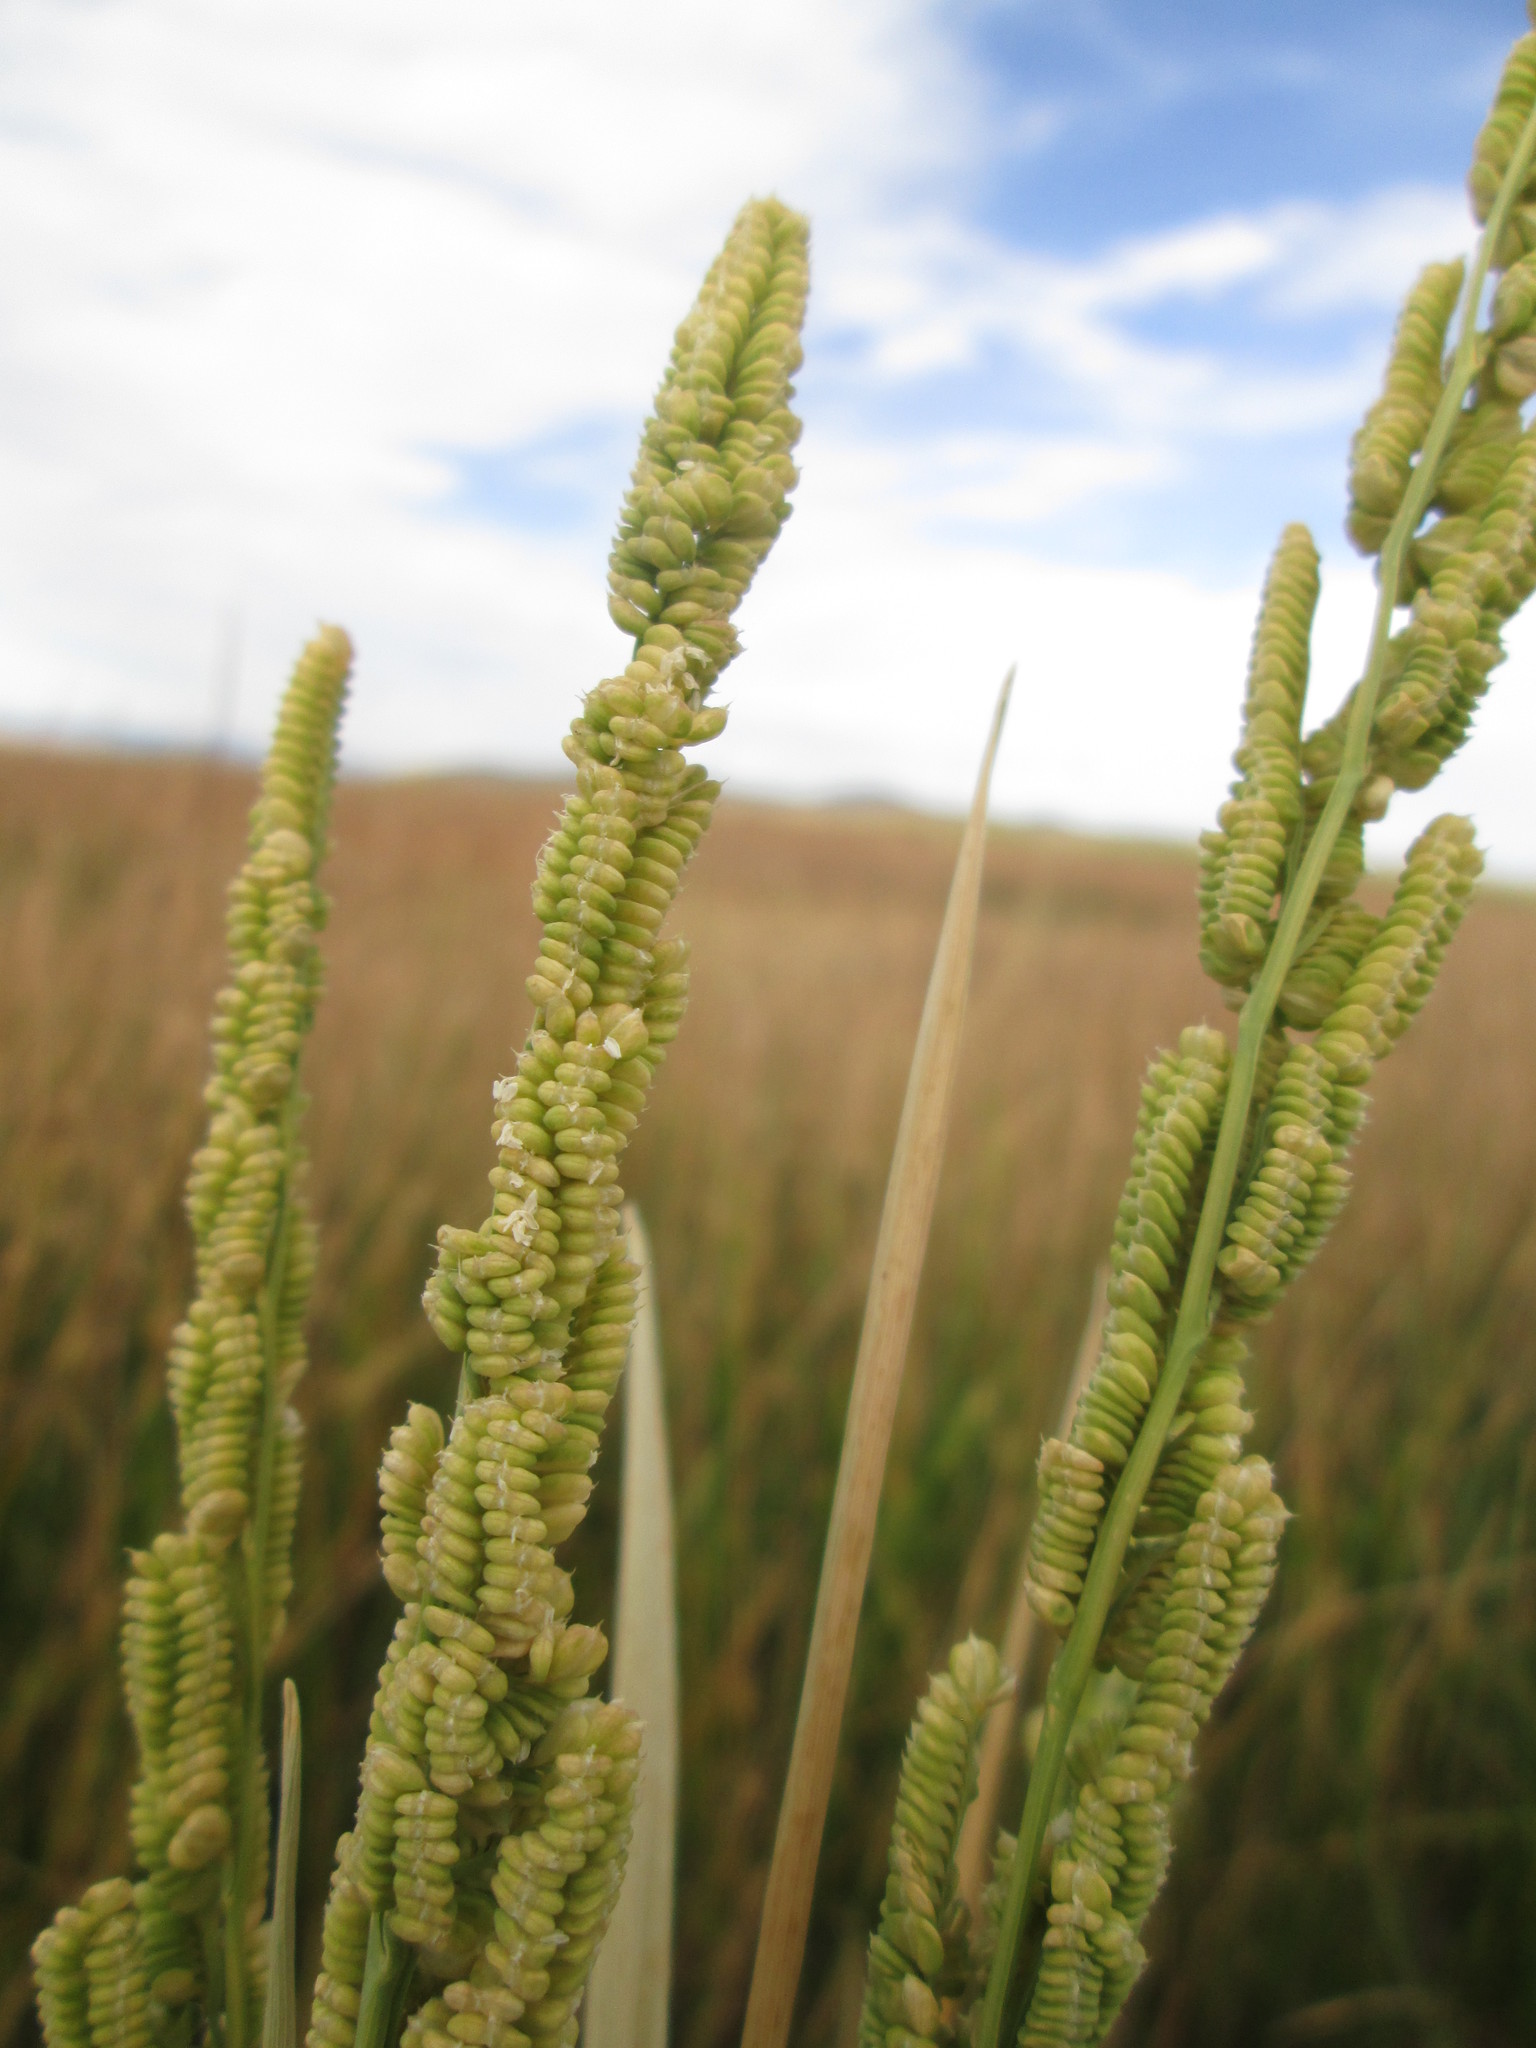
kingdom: Plantae
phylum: Tracheophyta
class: Liliopsida
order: Poales
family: Poaceae
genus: Beckmannia
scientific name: Beckmannia syzigachne
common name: American slough-grass
